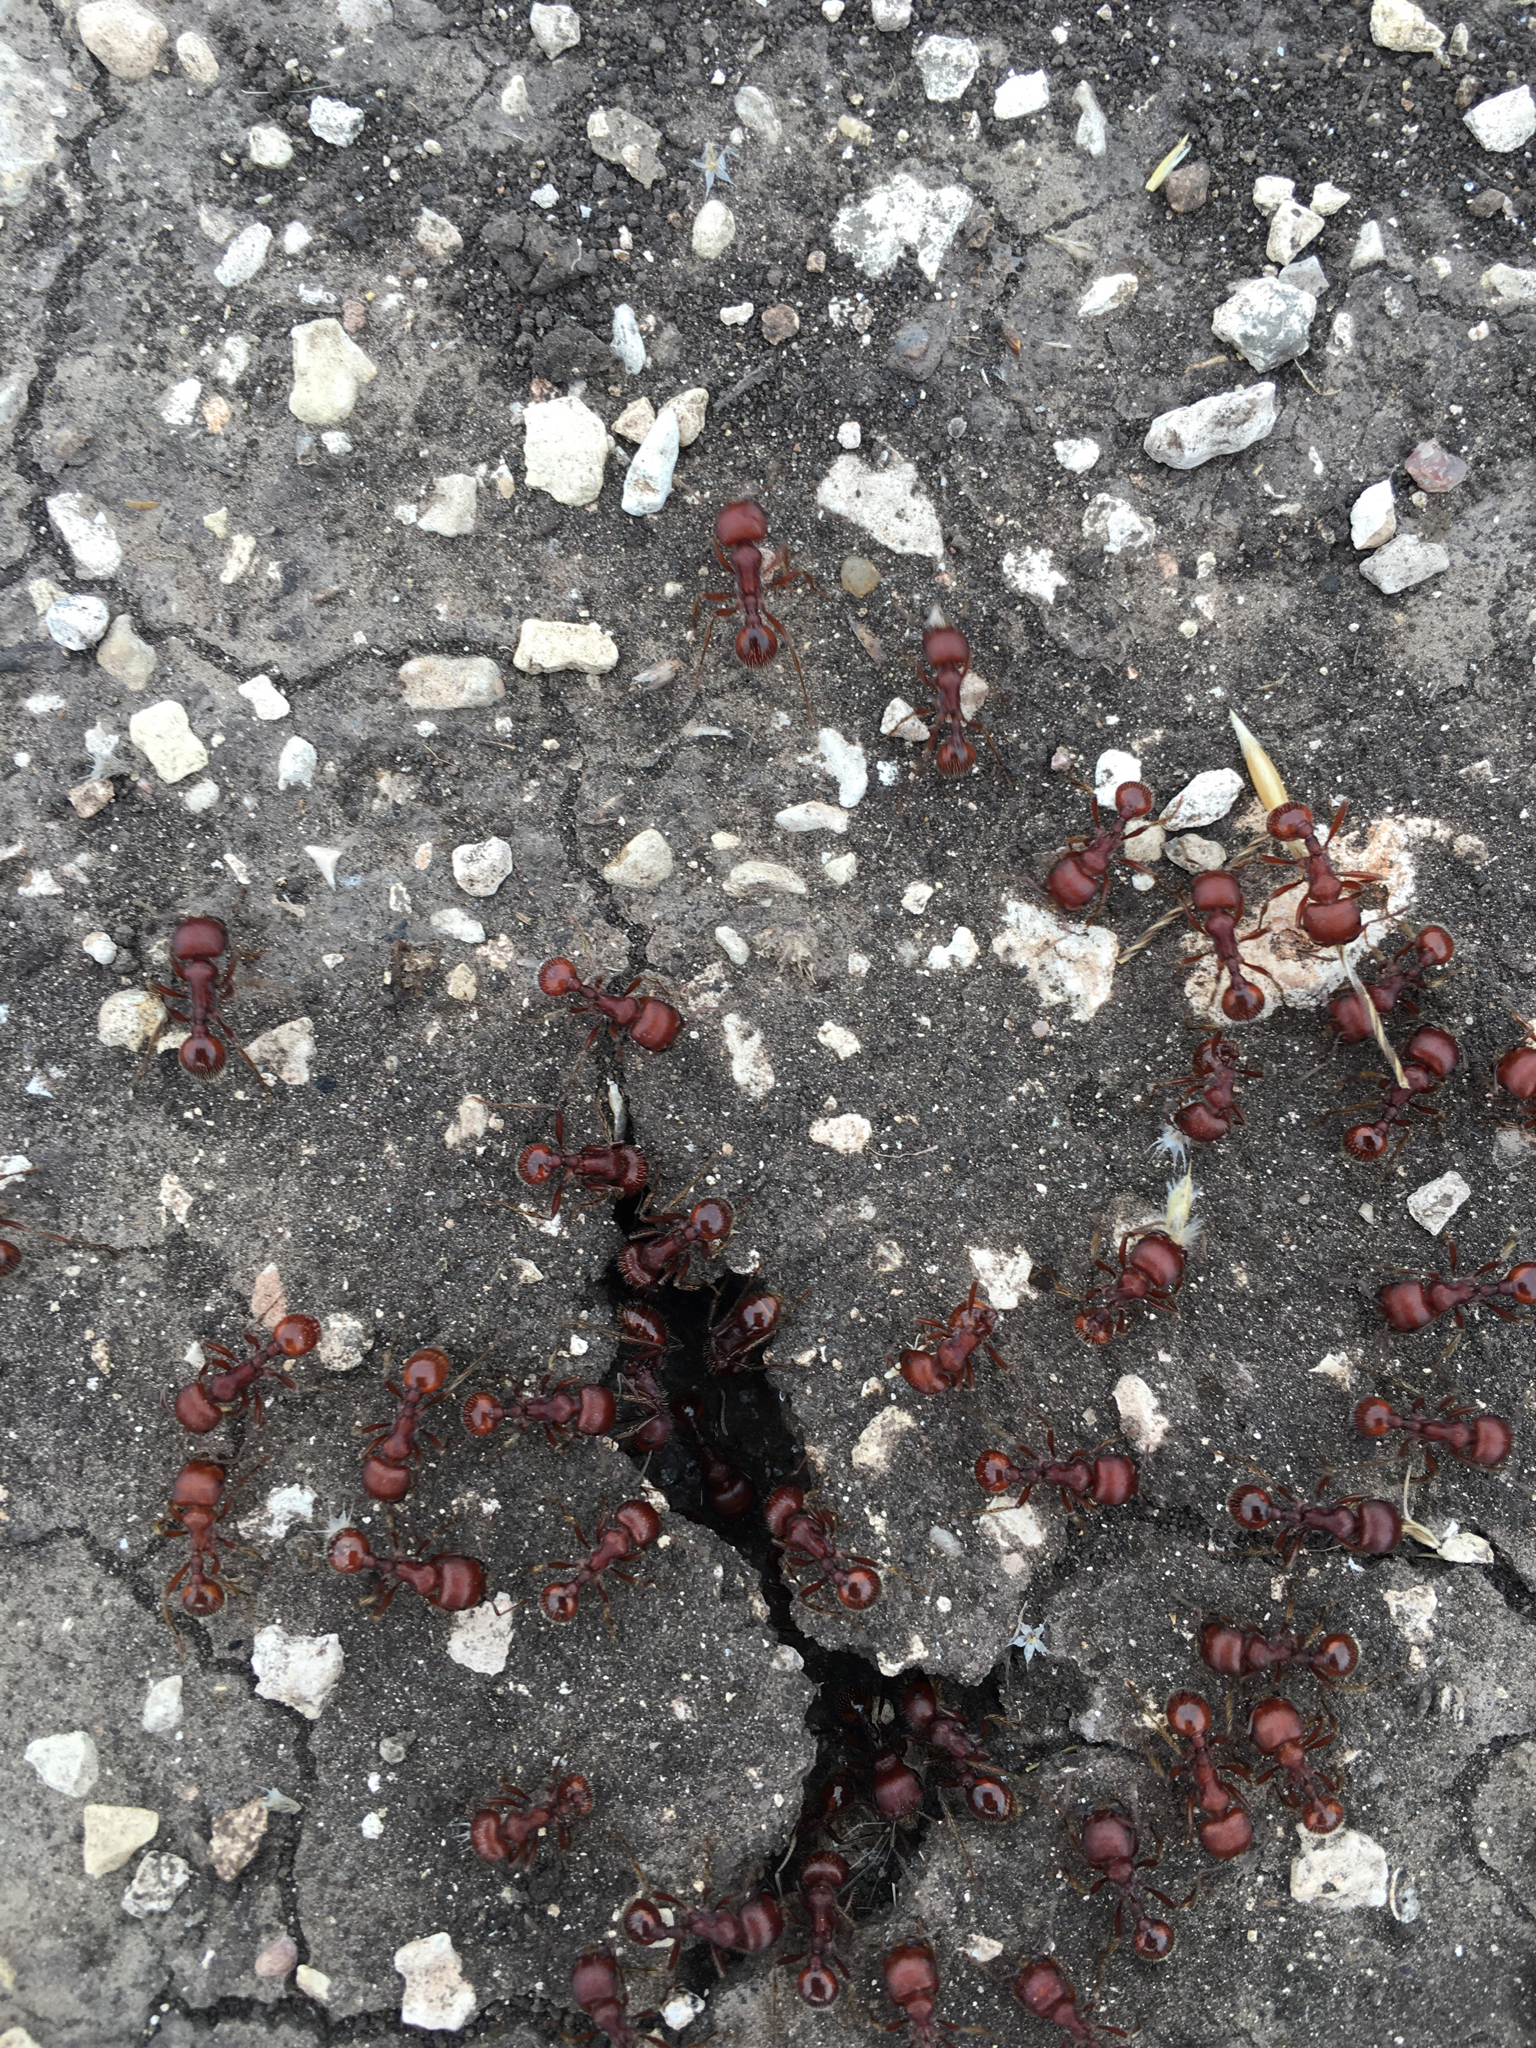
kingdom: Animalia
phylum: Arthropoda
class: Insecta
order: Hymenoptera
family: Formicidae
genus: Pogonomyrmex
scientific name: Pogonomyrmex barbatus
